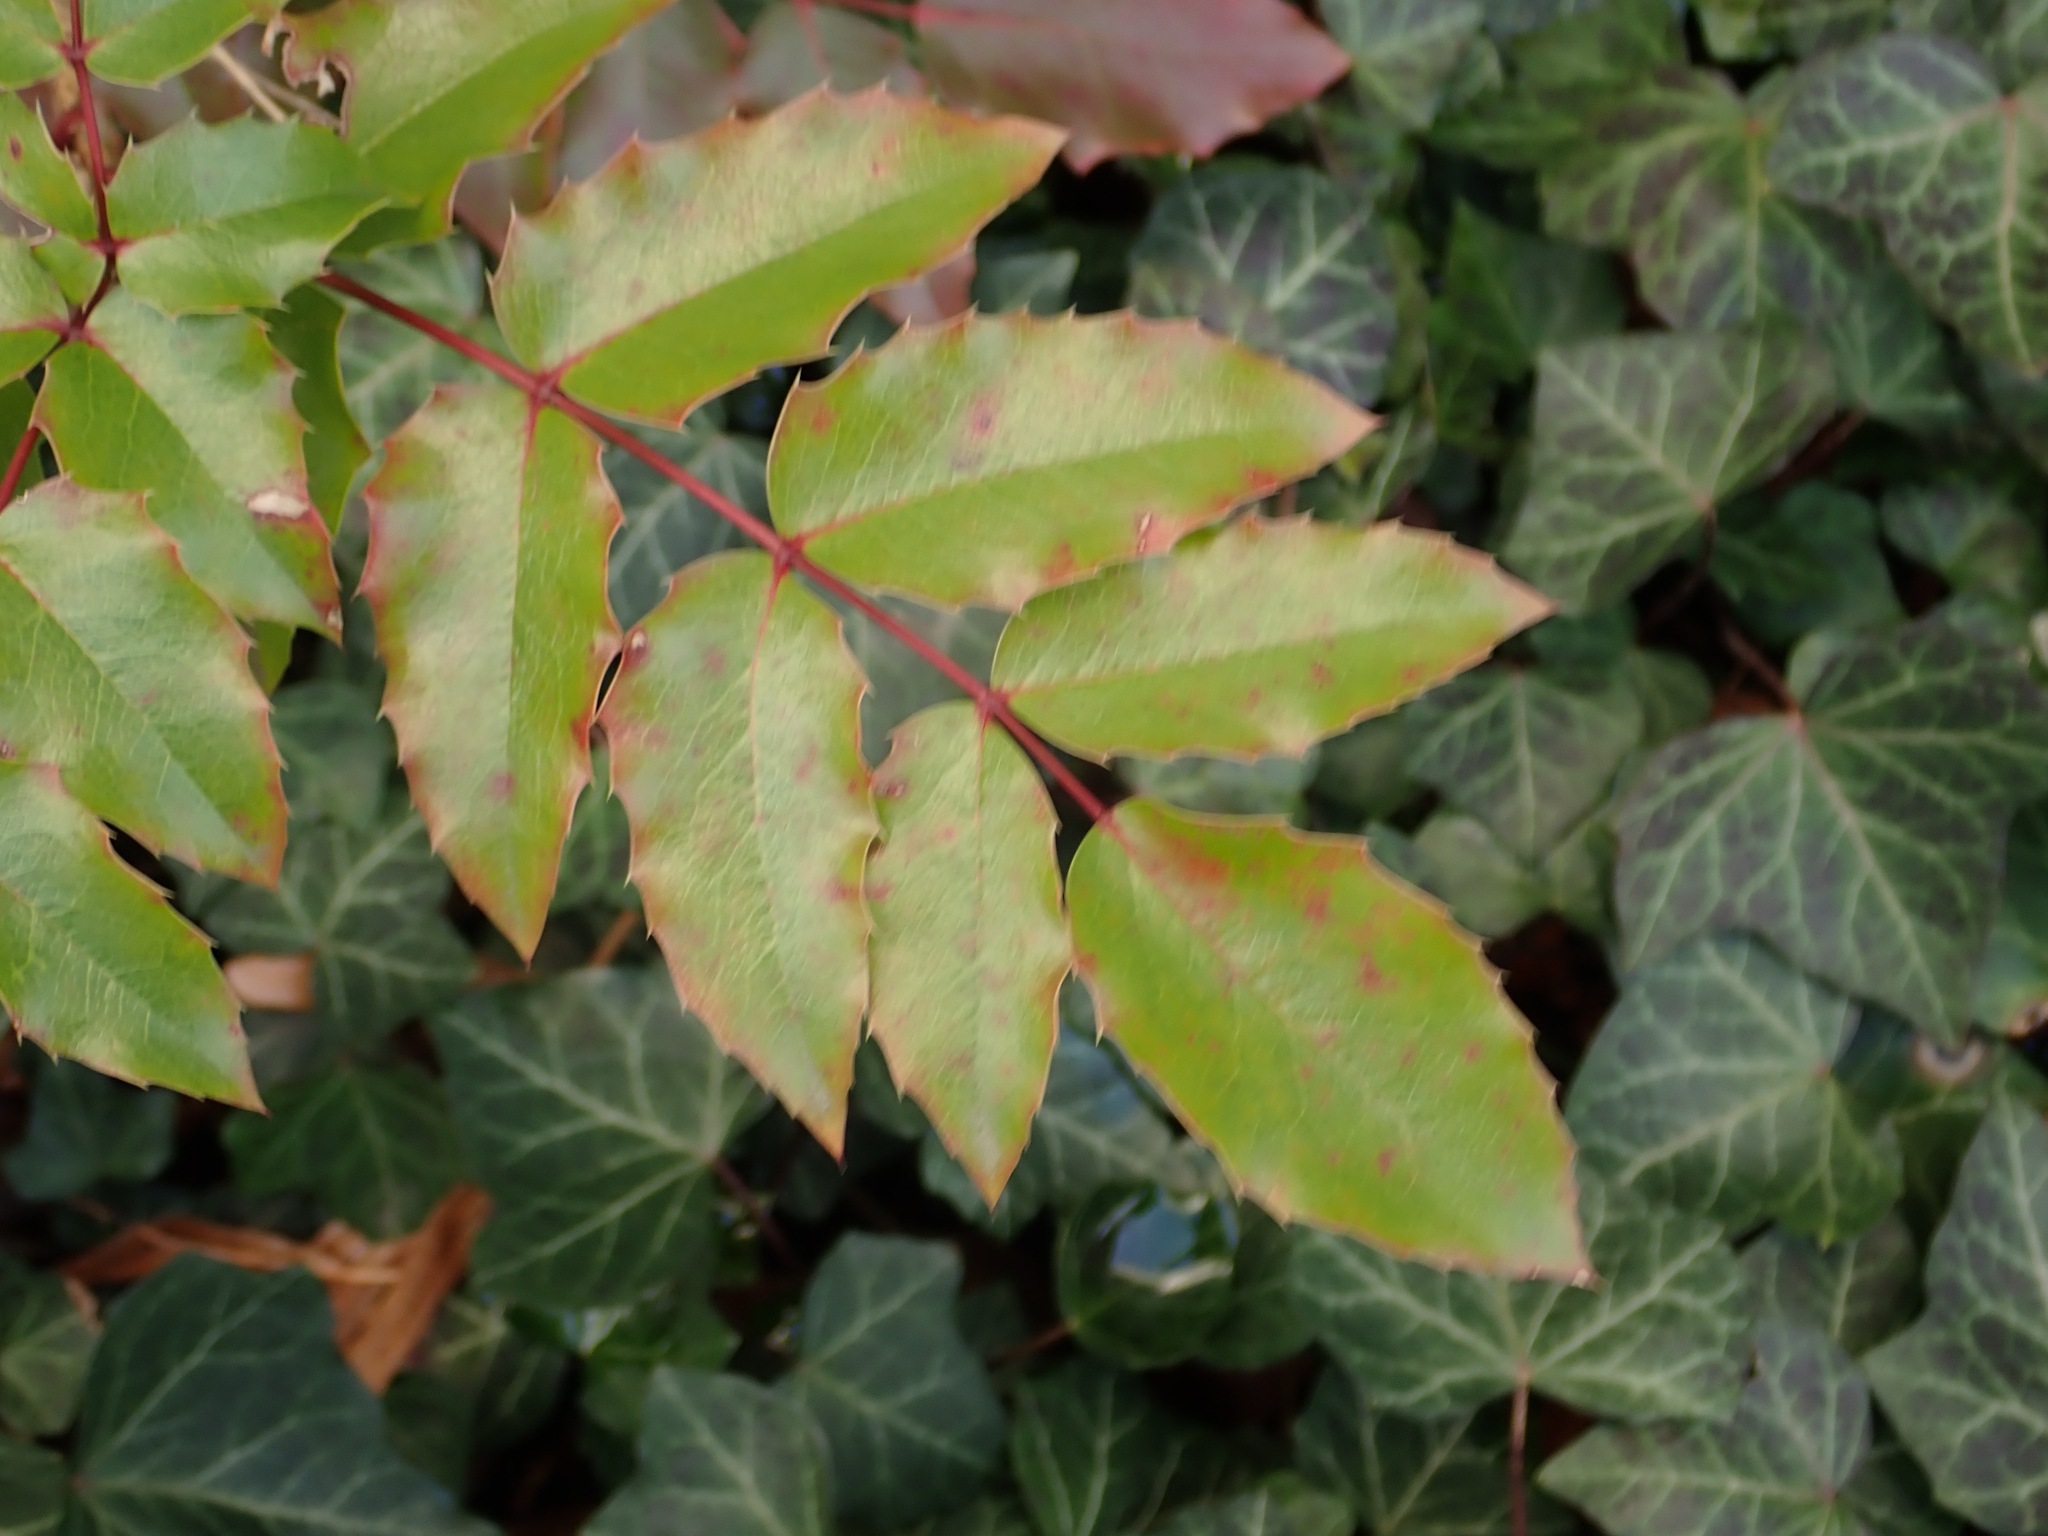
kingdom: Plantae
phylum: Tracheophyta
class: Magnoliopsida
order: Ranunculales
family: Berberidaceae
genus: Mahonia
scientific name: Mahonia aquifolium
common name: Oregon-grape
